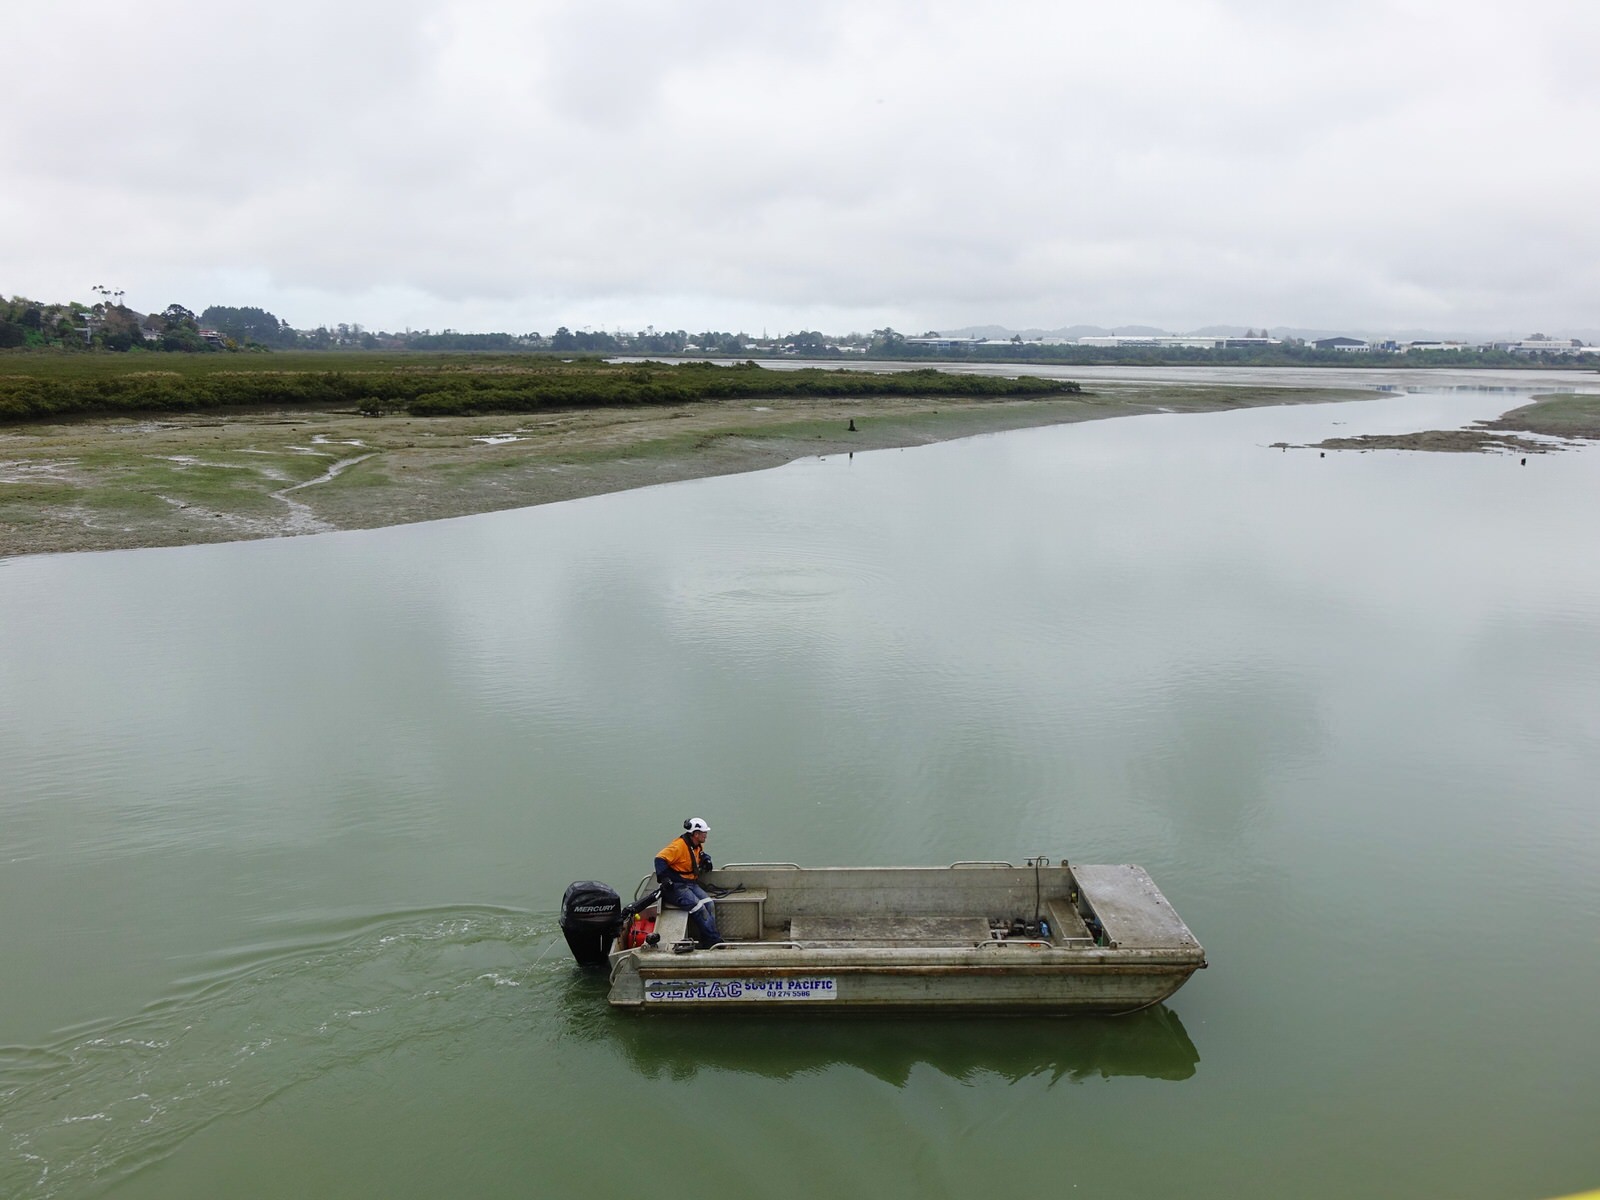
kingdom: Animalia
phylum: Chordata
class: Aves
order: Suliformes
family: Phalacrocoracidae
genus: Phalacrocorax
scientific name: Phalacrocorax varius
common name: Pied cormorant
